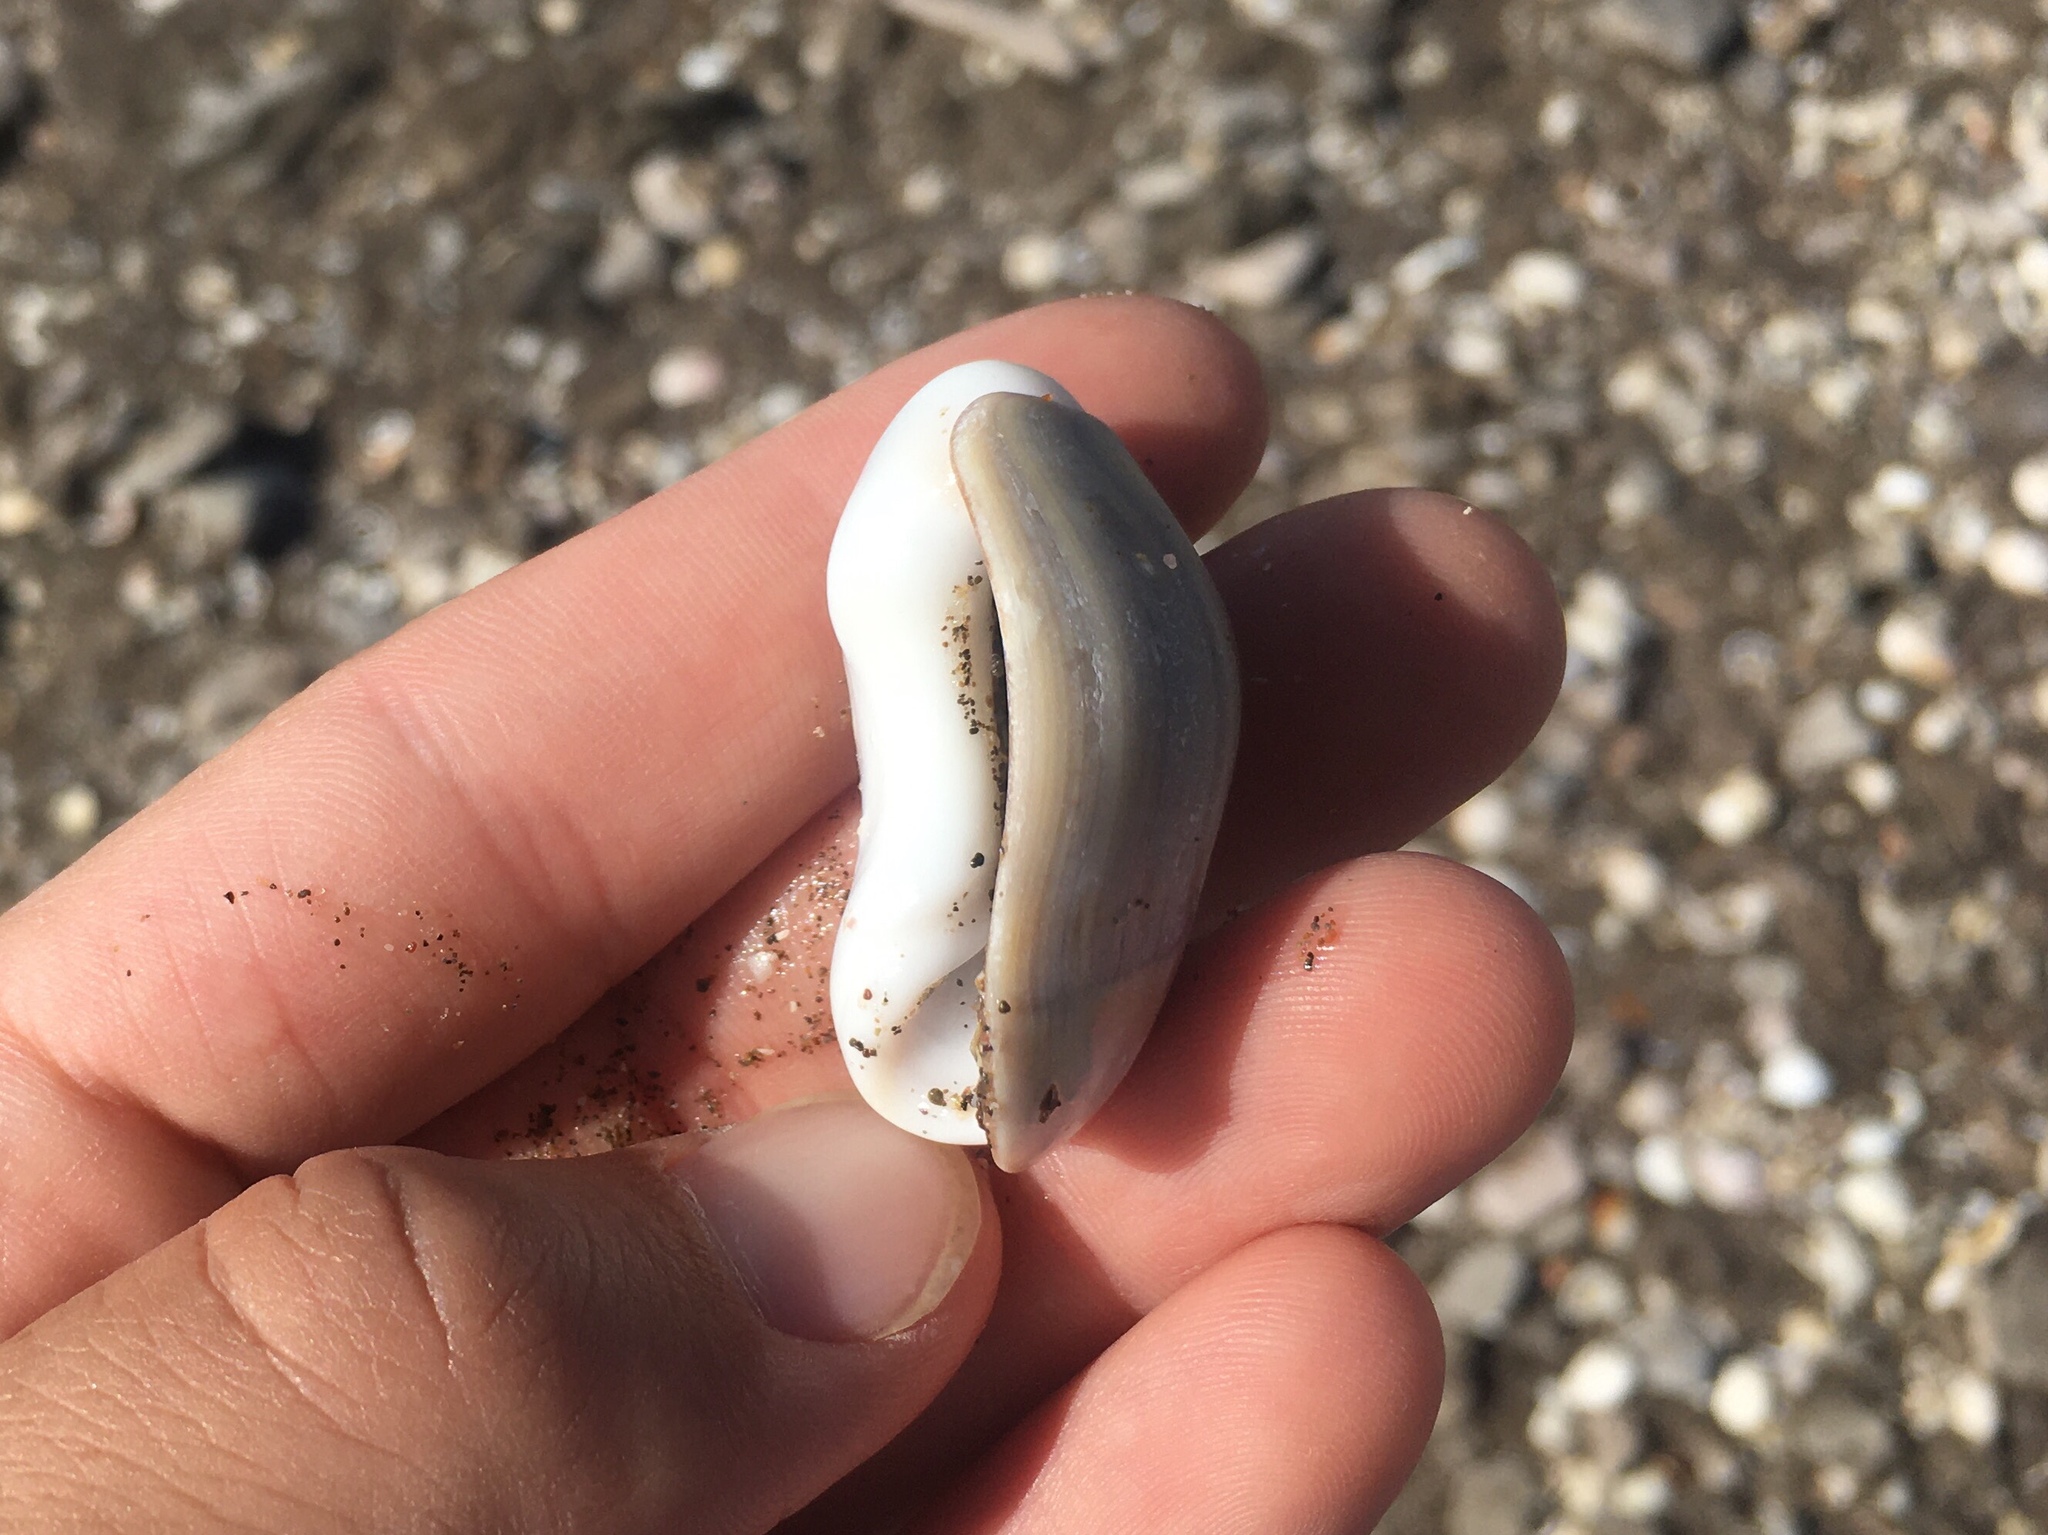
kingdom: Animalia
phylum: Mollusca
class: Gastropoda
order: Neogastropoda
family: Olividae
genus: Olivancillaria
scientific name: Olivancillaria auricularia
